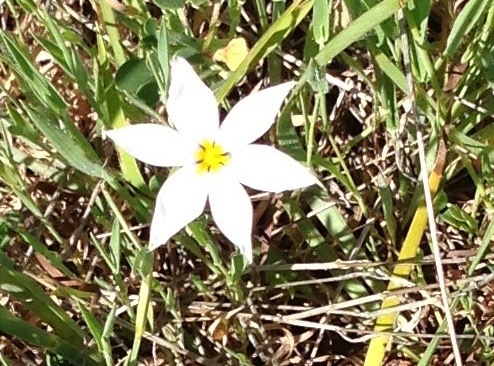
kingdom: Plantae
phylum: Tracheophyta
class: Liliopsida
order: Asparagales
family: Iridaceae
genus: Sisyrinchium
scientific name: Sisyrinchium bellum
